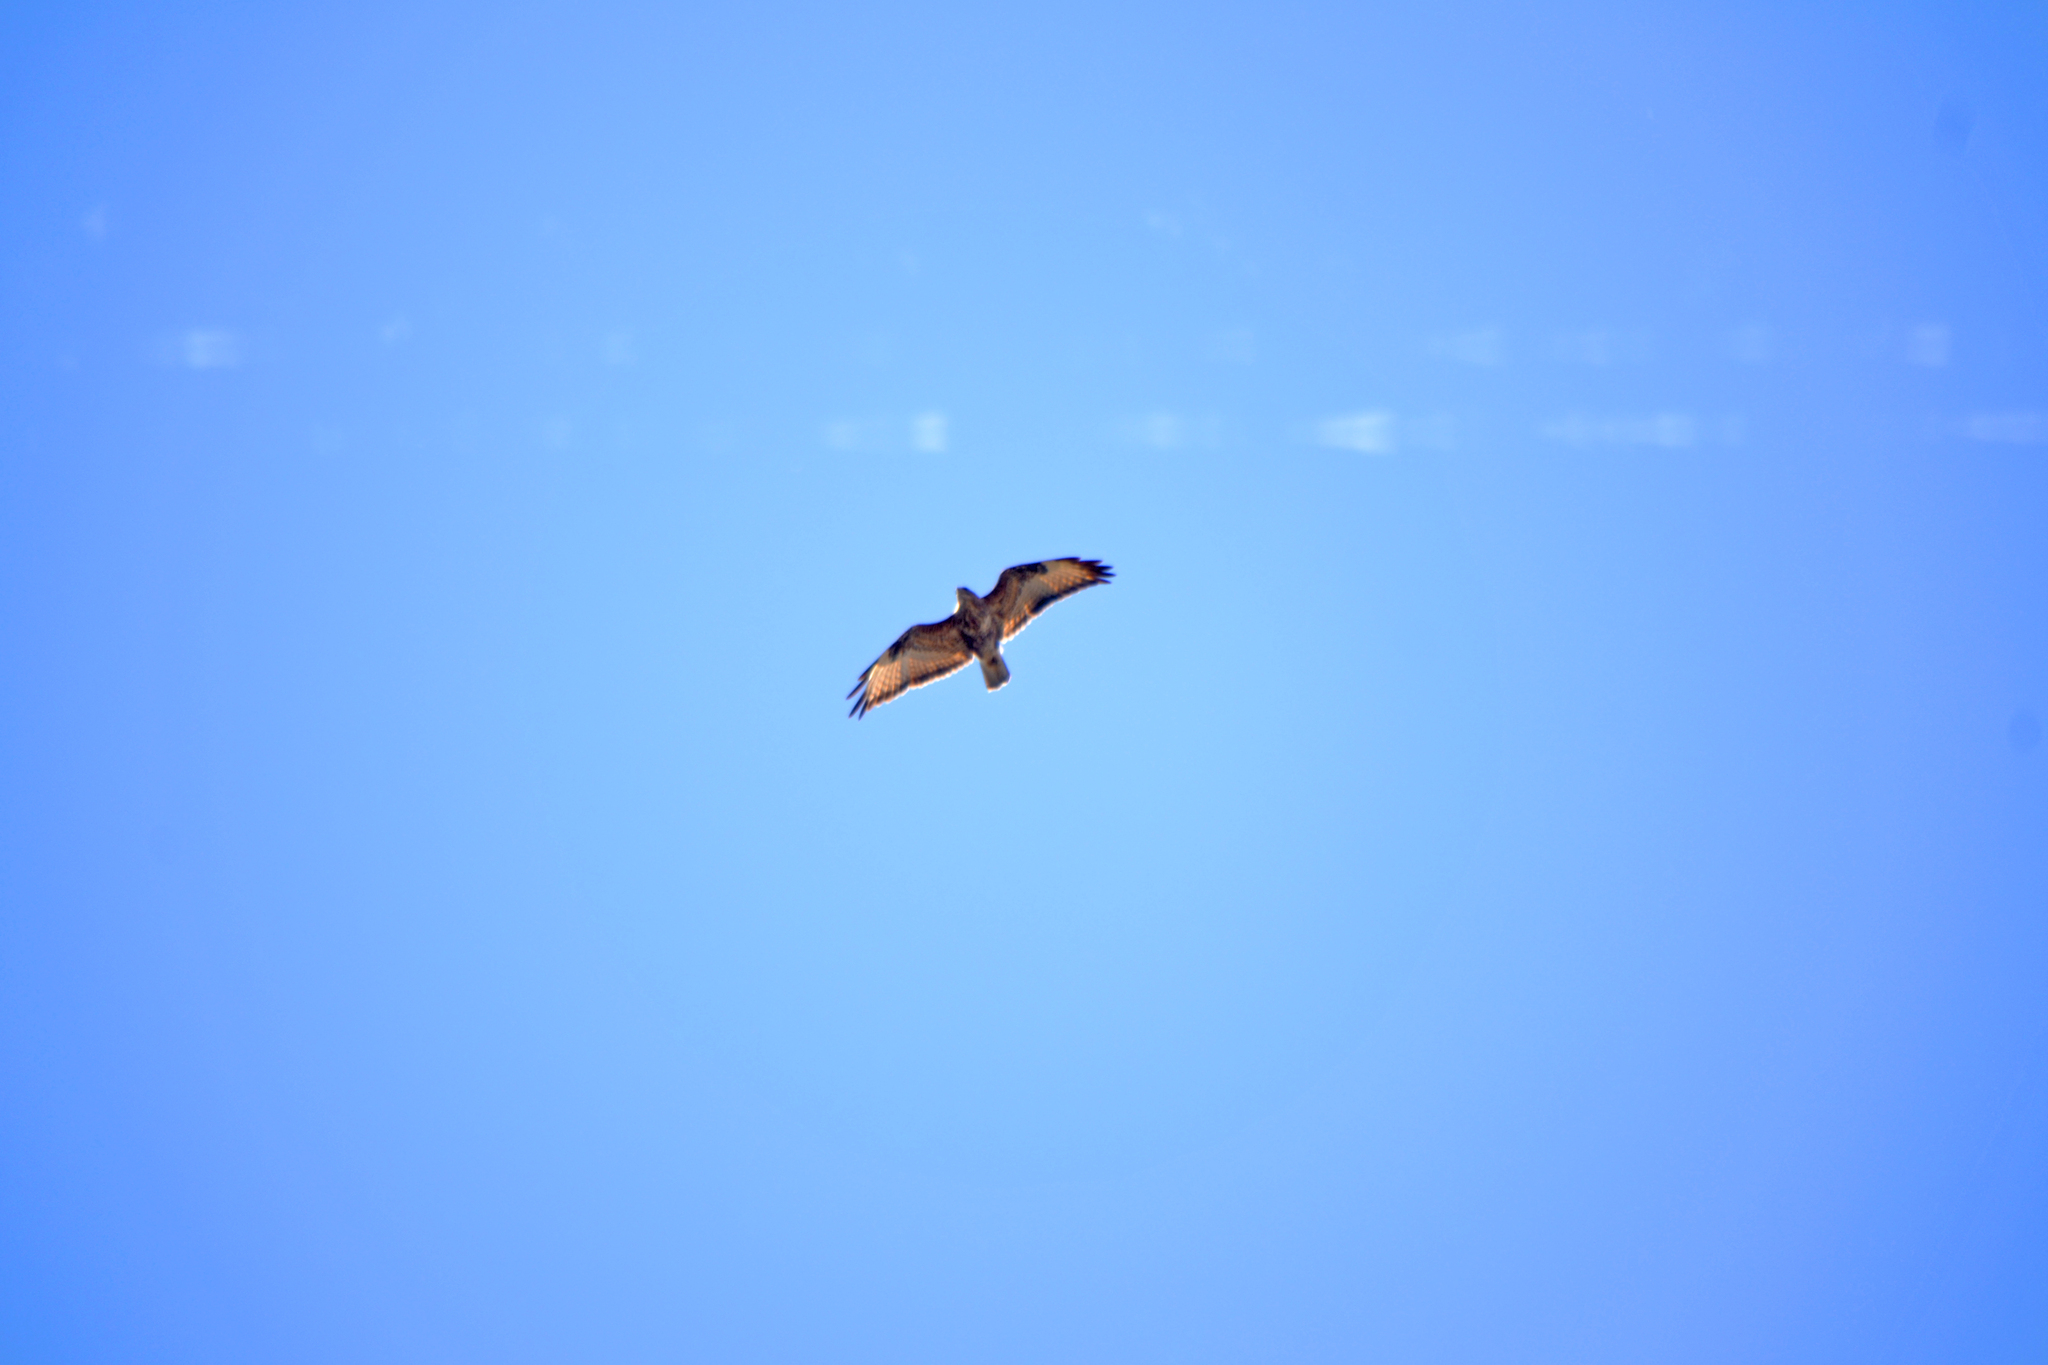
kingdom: Animalia
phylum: Chordata
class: Aves
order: Accipitriformes
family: Accipitridae
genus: Buteo
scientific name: Buteo buteo
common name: Common buzzard
